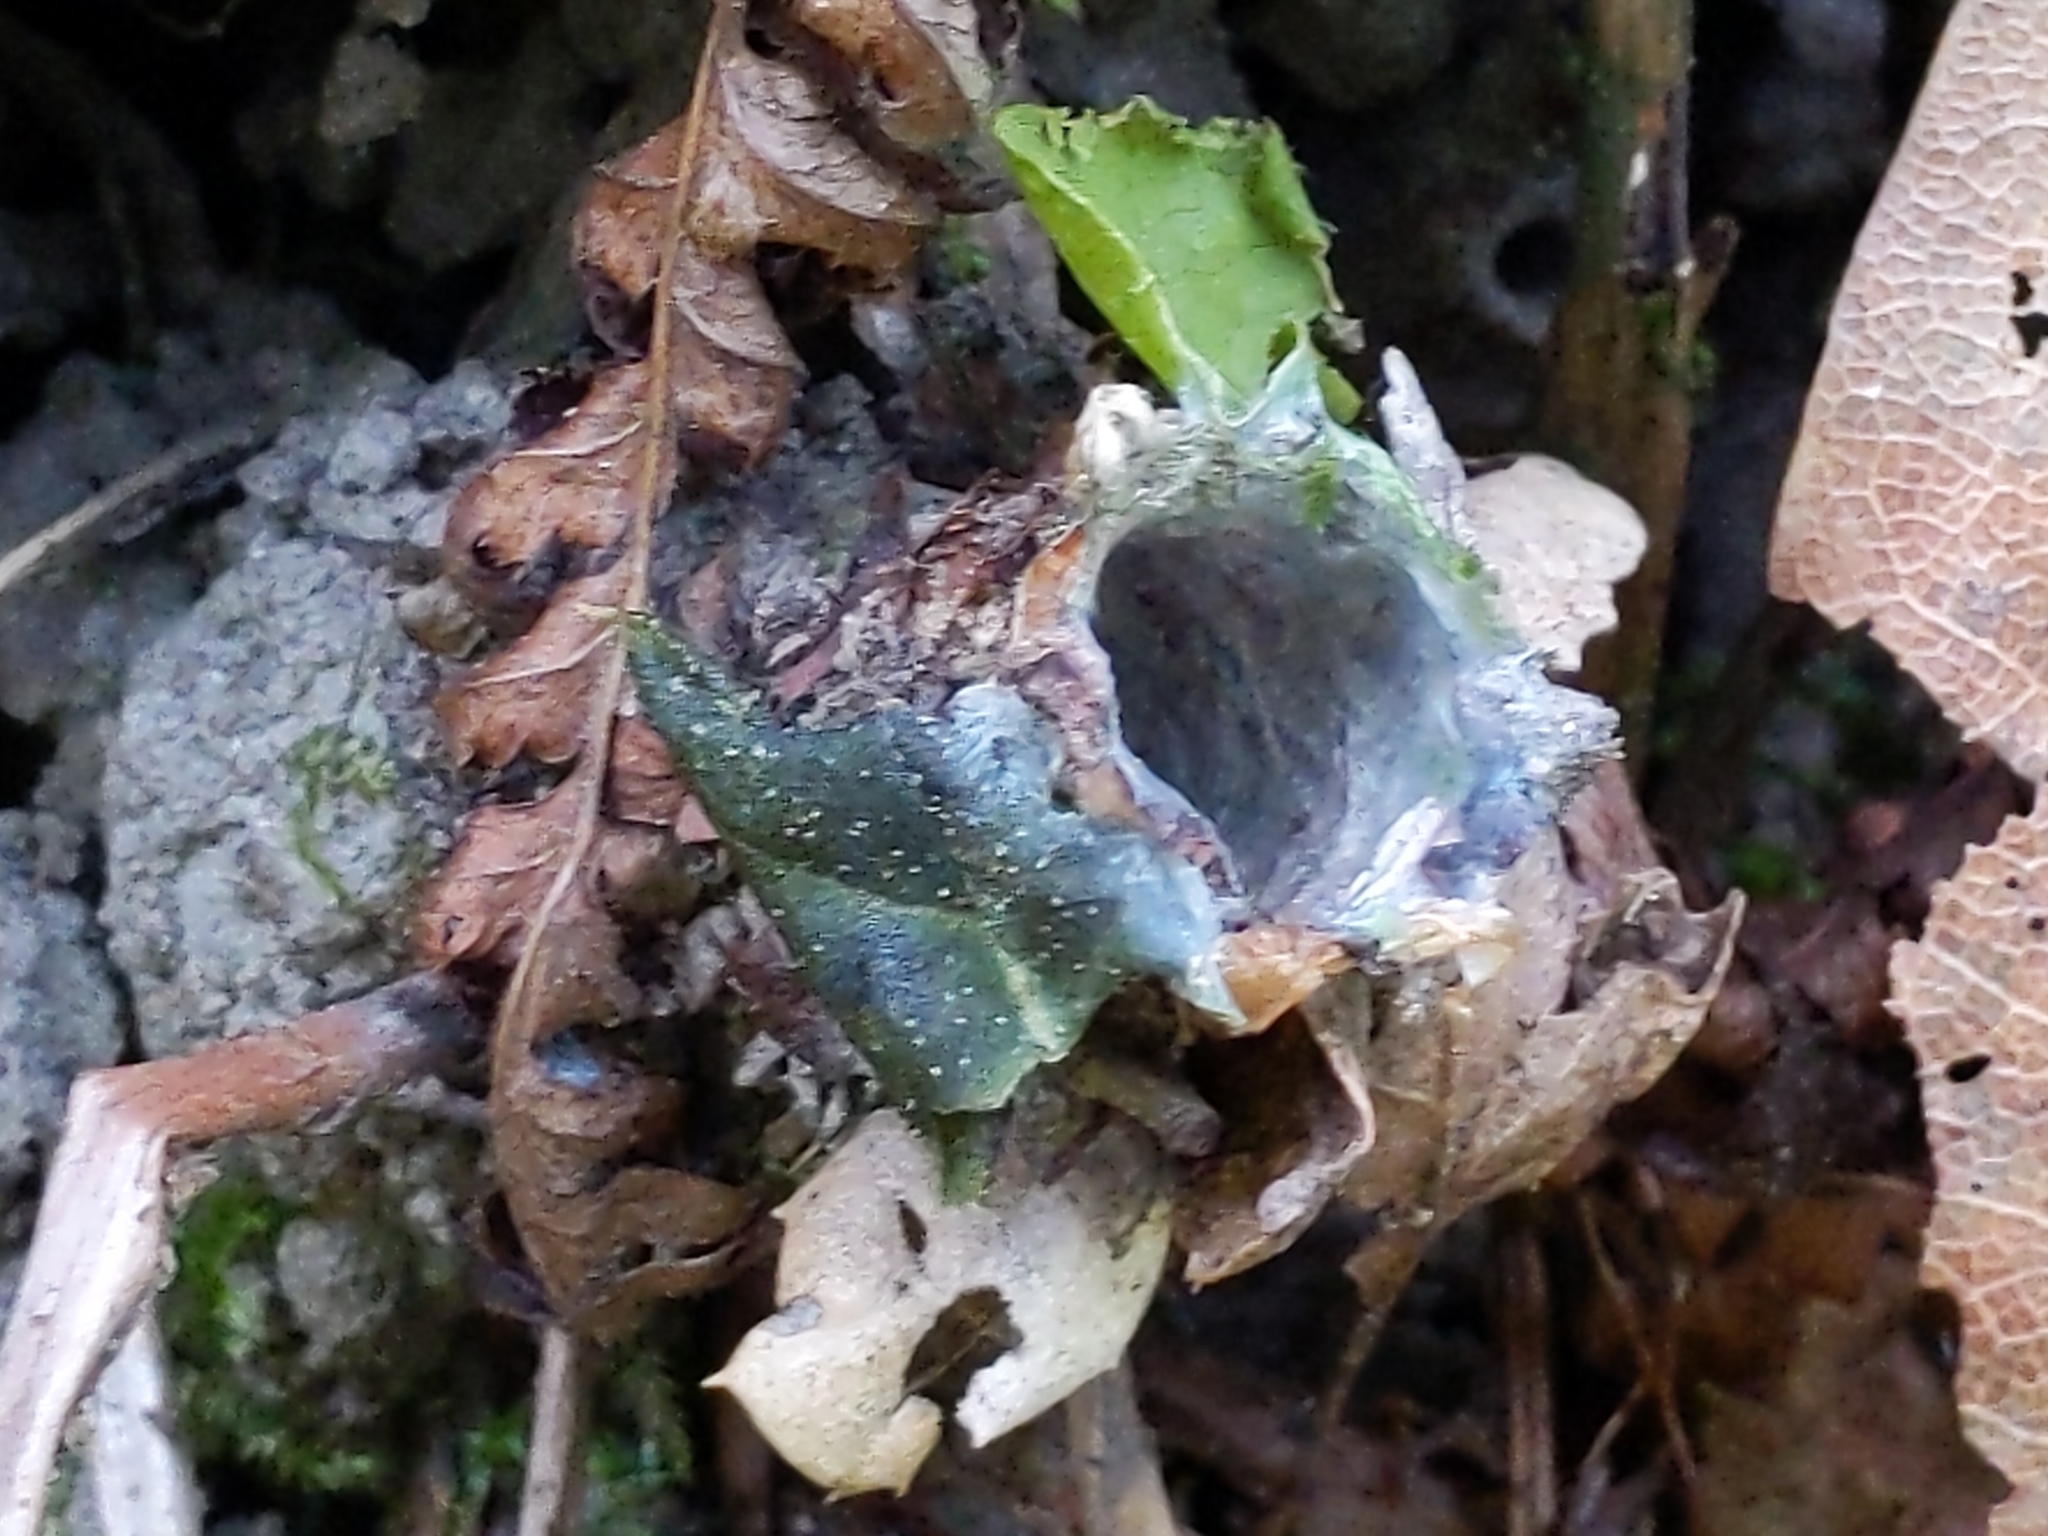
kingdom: Animalia
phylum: Arthropoda
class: Arachnida
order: Araneae
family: Antrodiaetidae
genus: Atypoides
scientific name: Atypoides riversi
